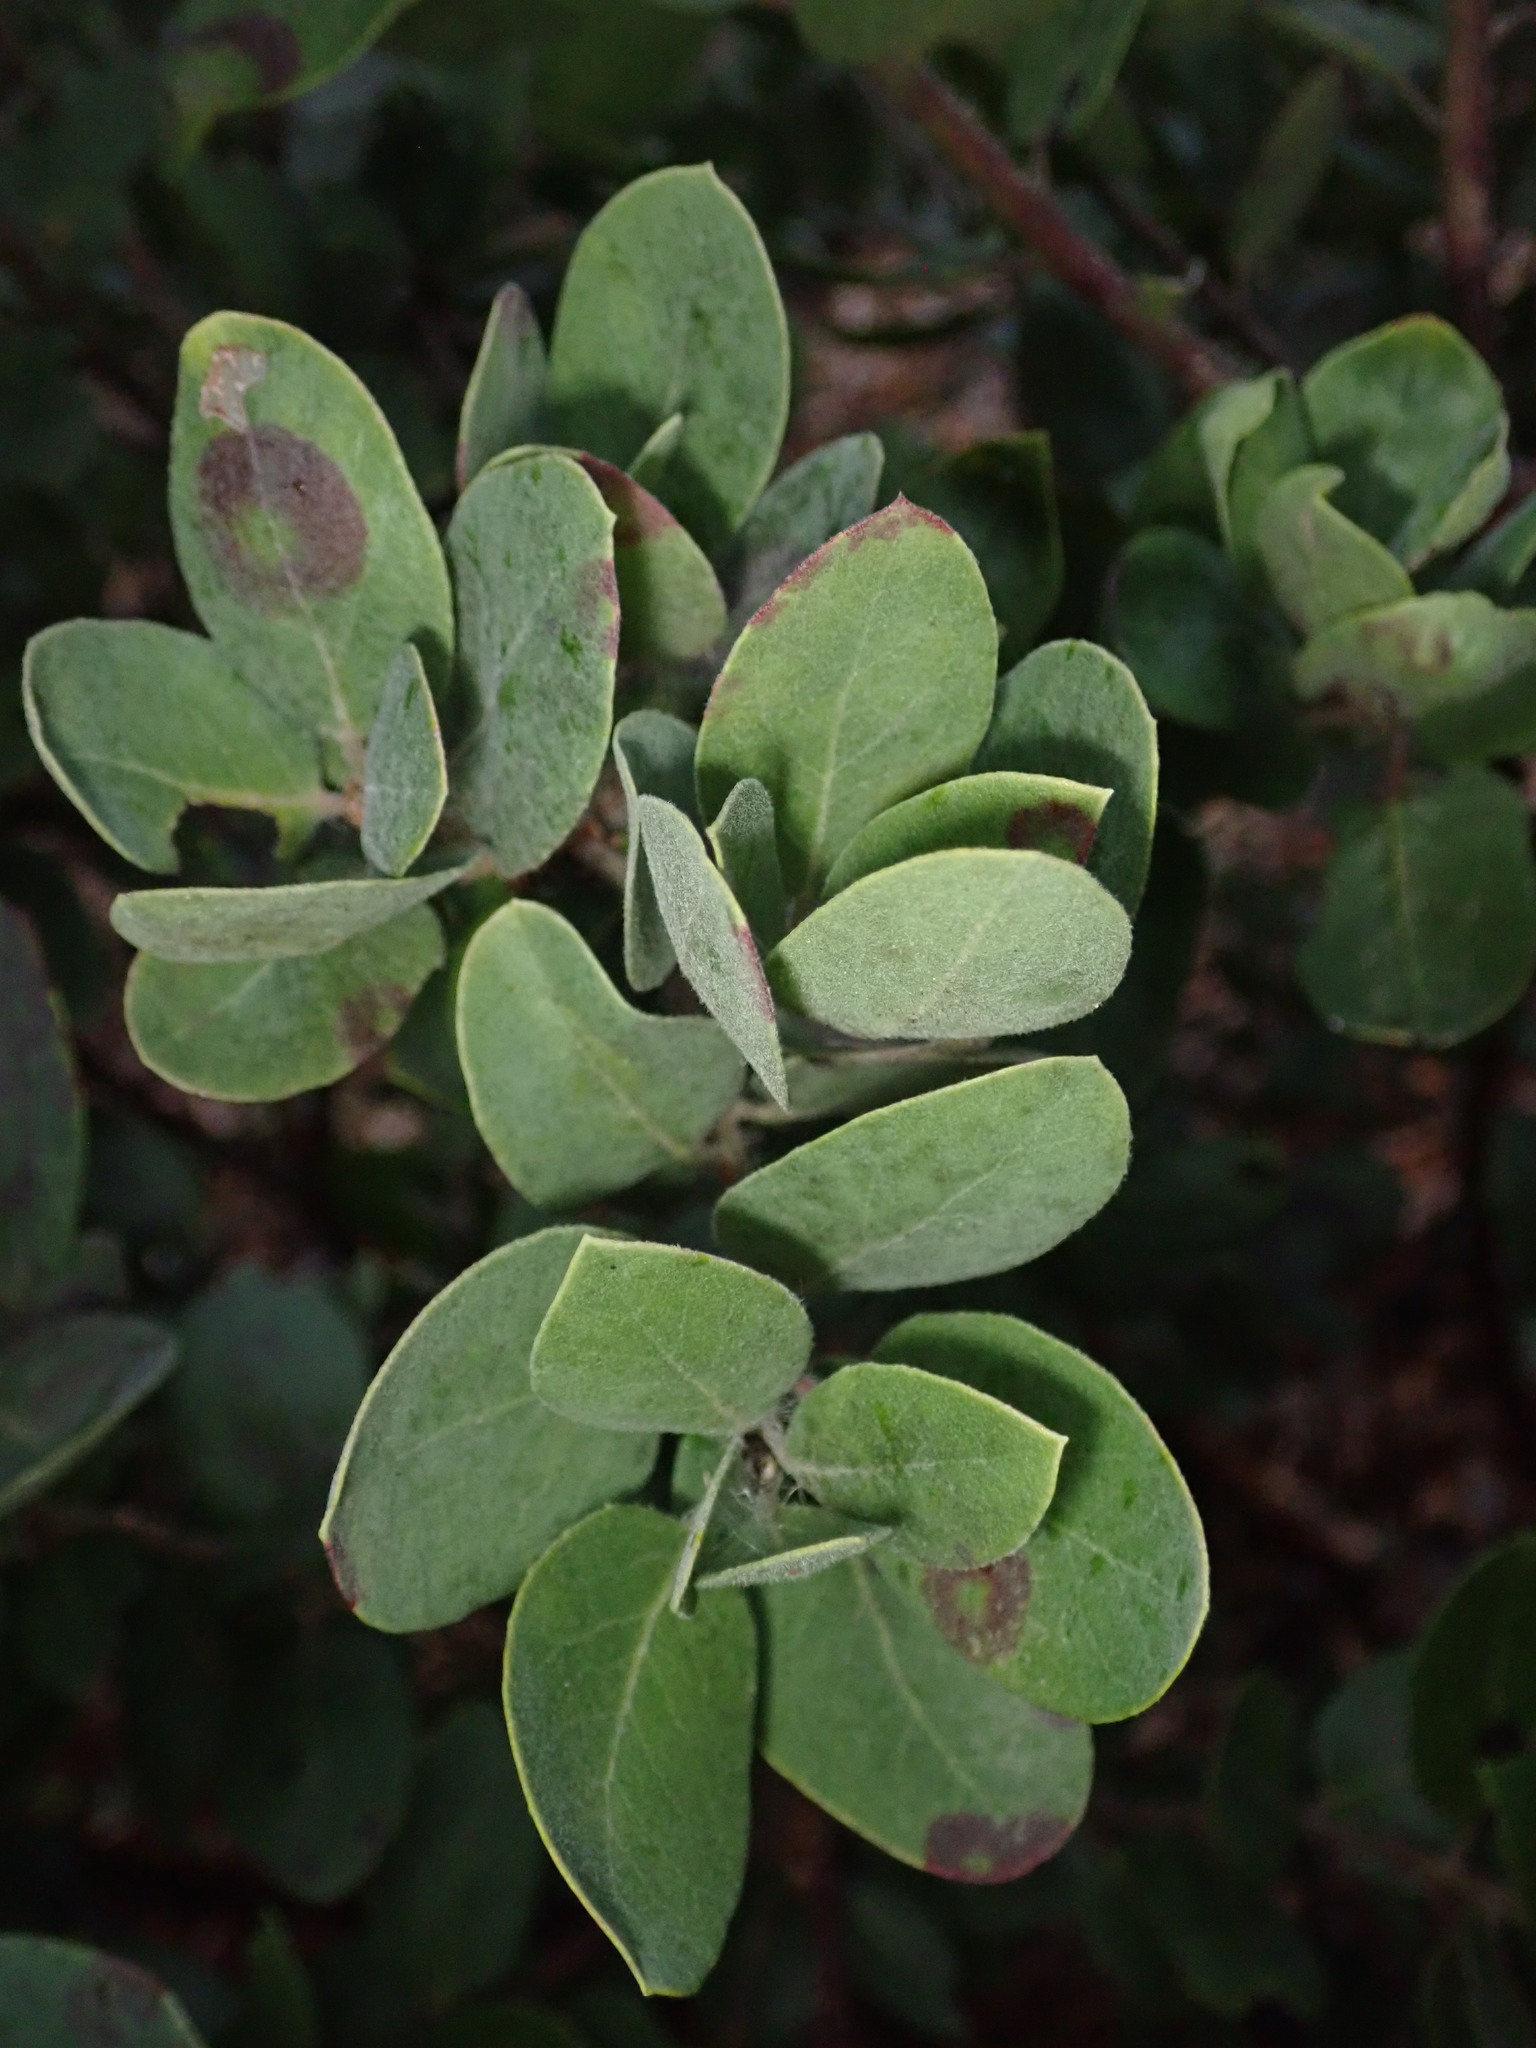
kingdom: Plantae
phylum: Tracheophyta
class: Magnoliopsida
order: Ericales
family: Ericaceae
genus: Arctostaphylos
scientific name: Arctostaphylos crustacea
